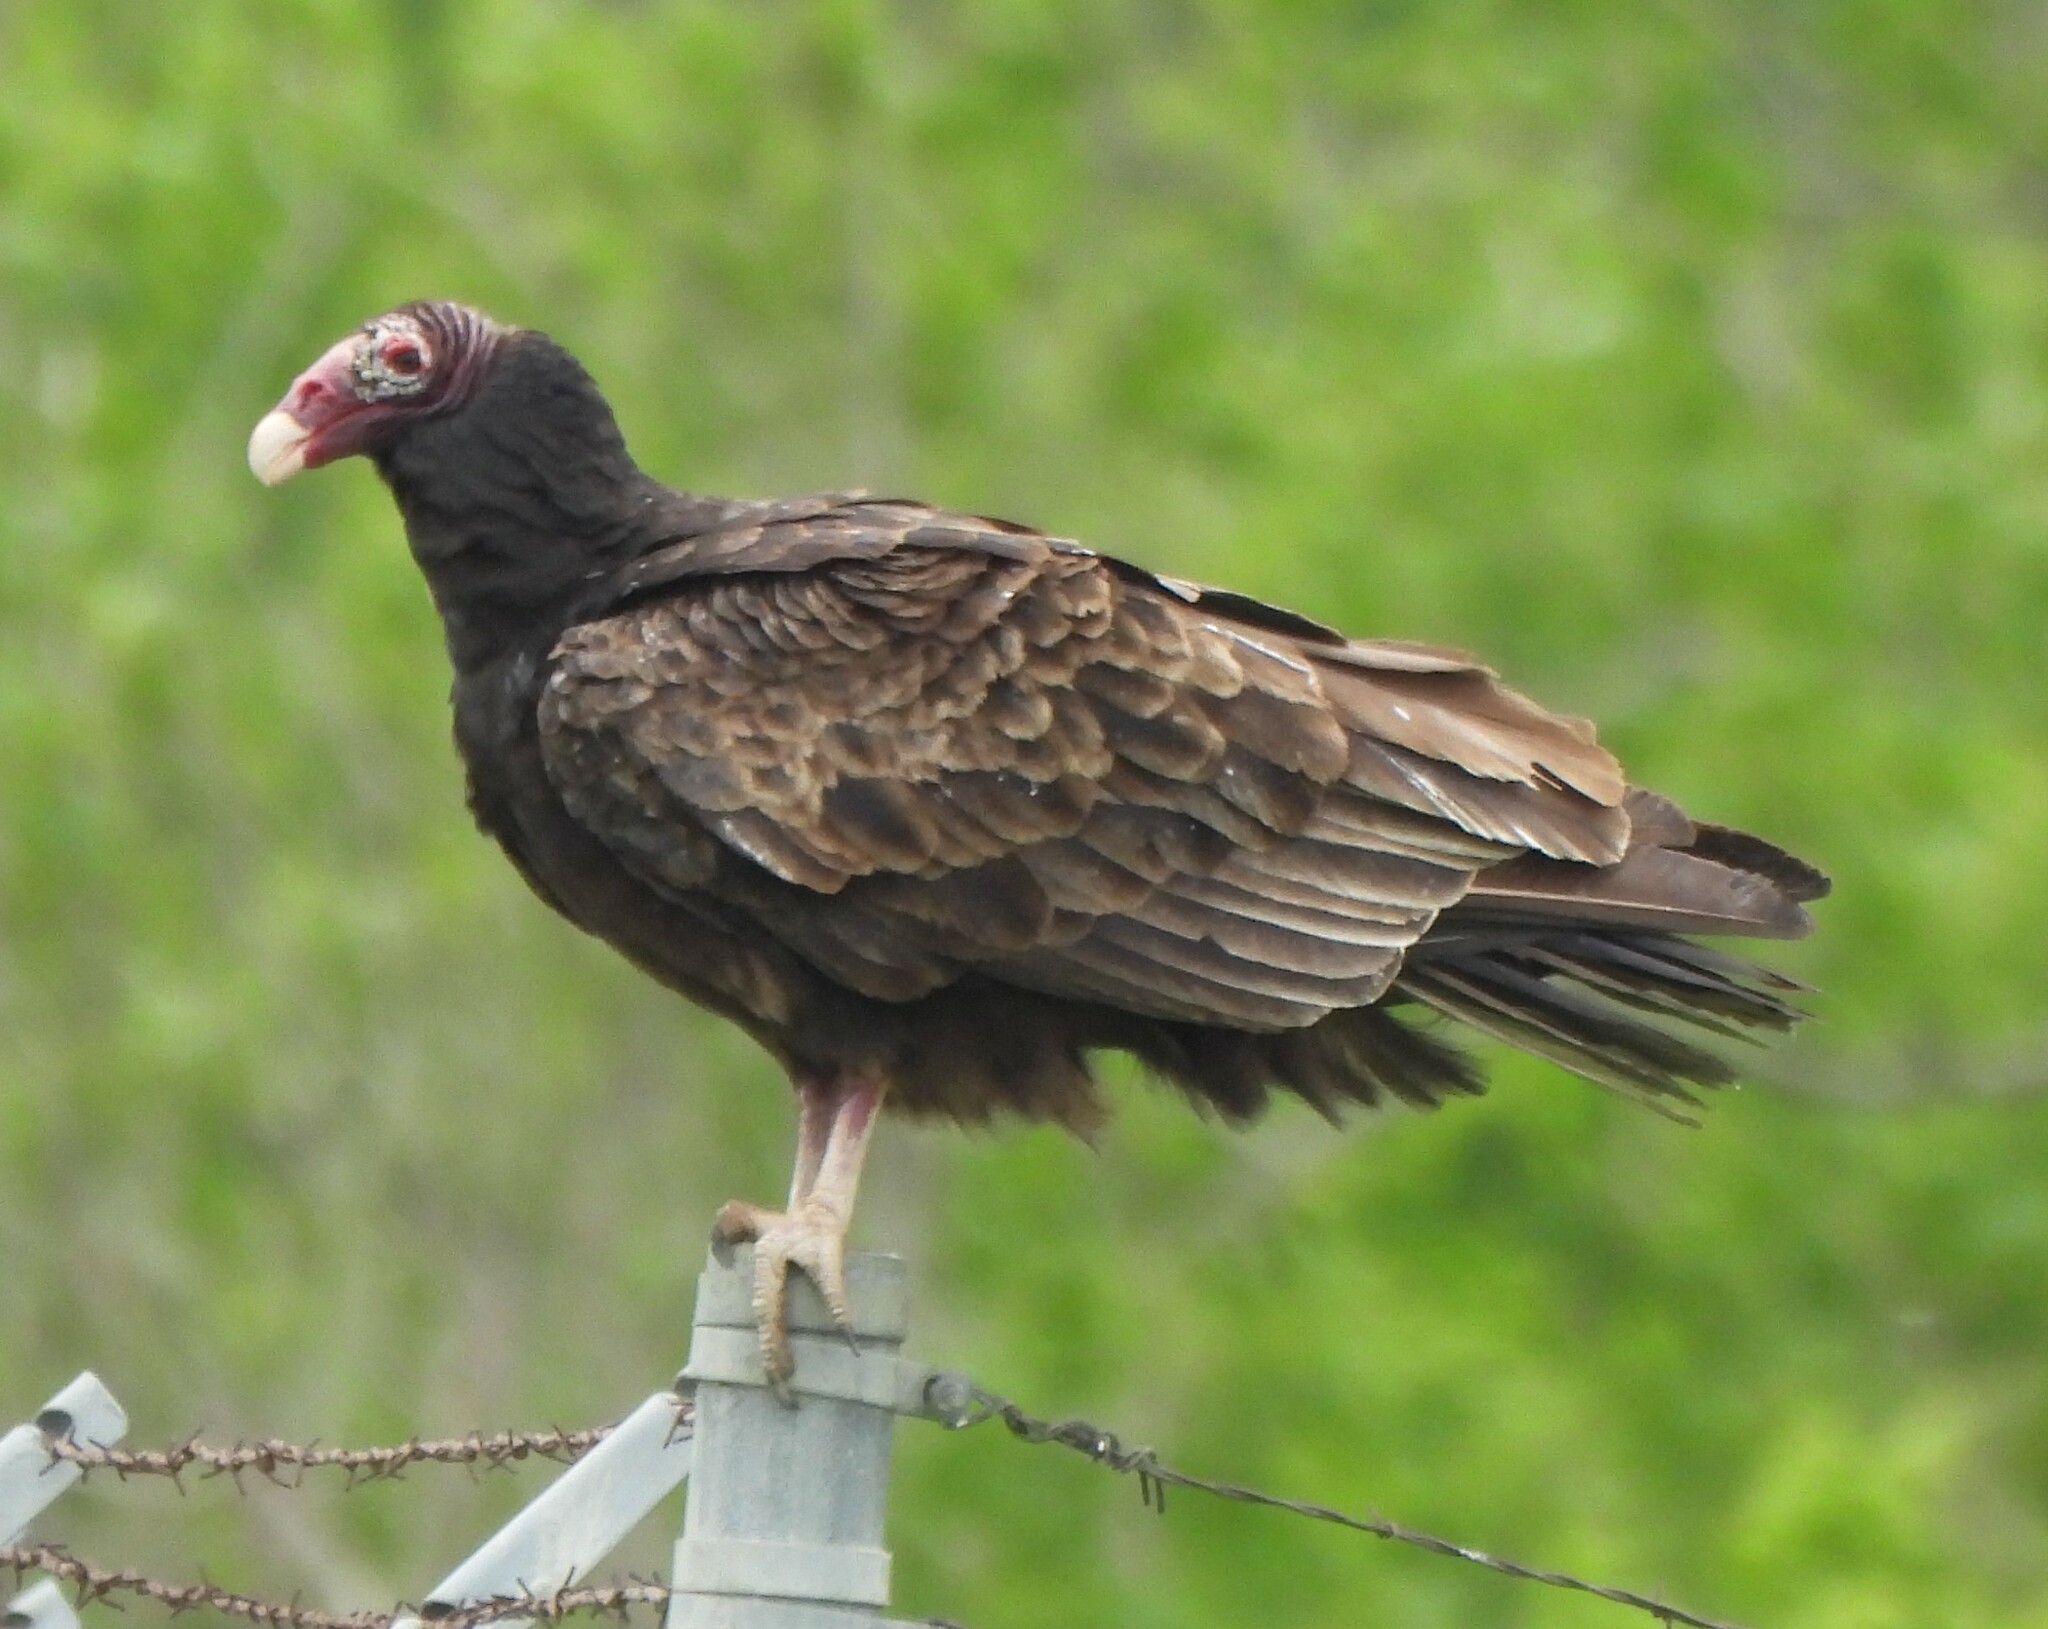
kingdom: Animalia
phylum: Chordata
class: Aves
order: Accipitriformes
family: Cathartidae
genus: Cathartes
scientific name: Cathartes aura
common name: Turkey vulture
